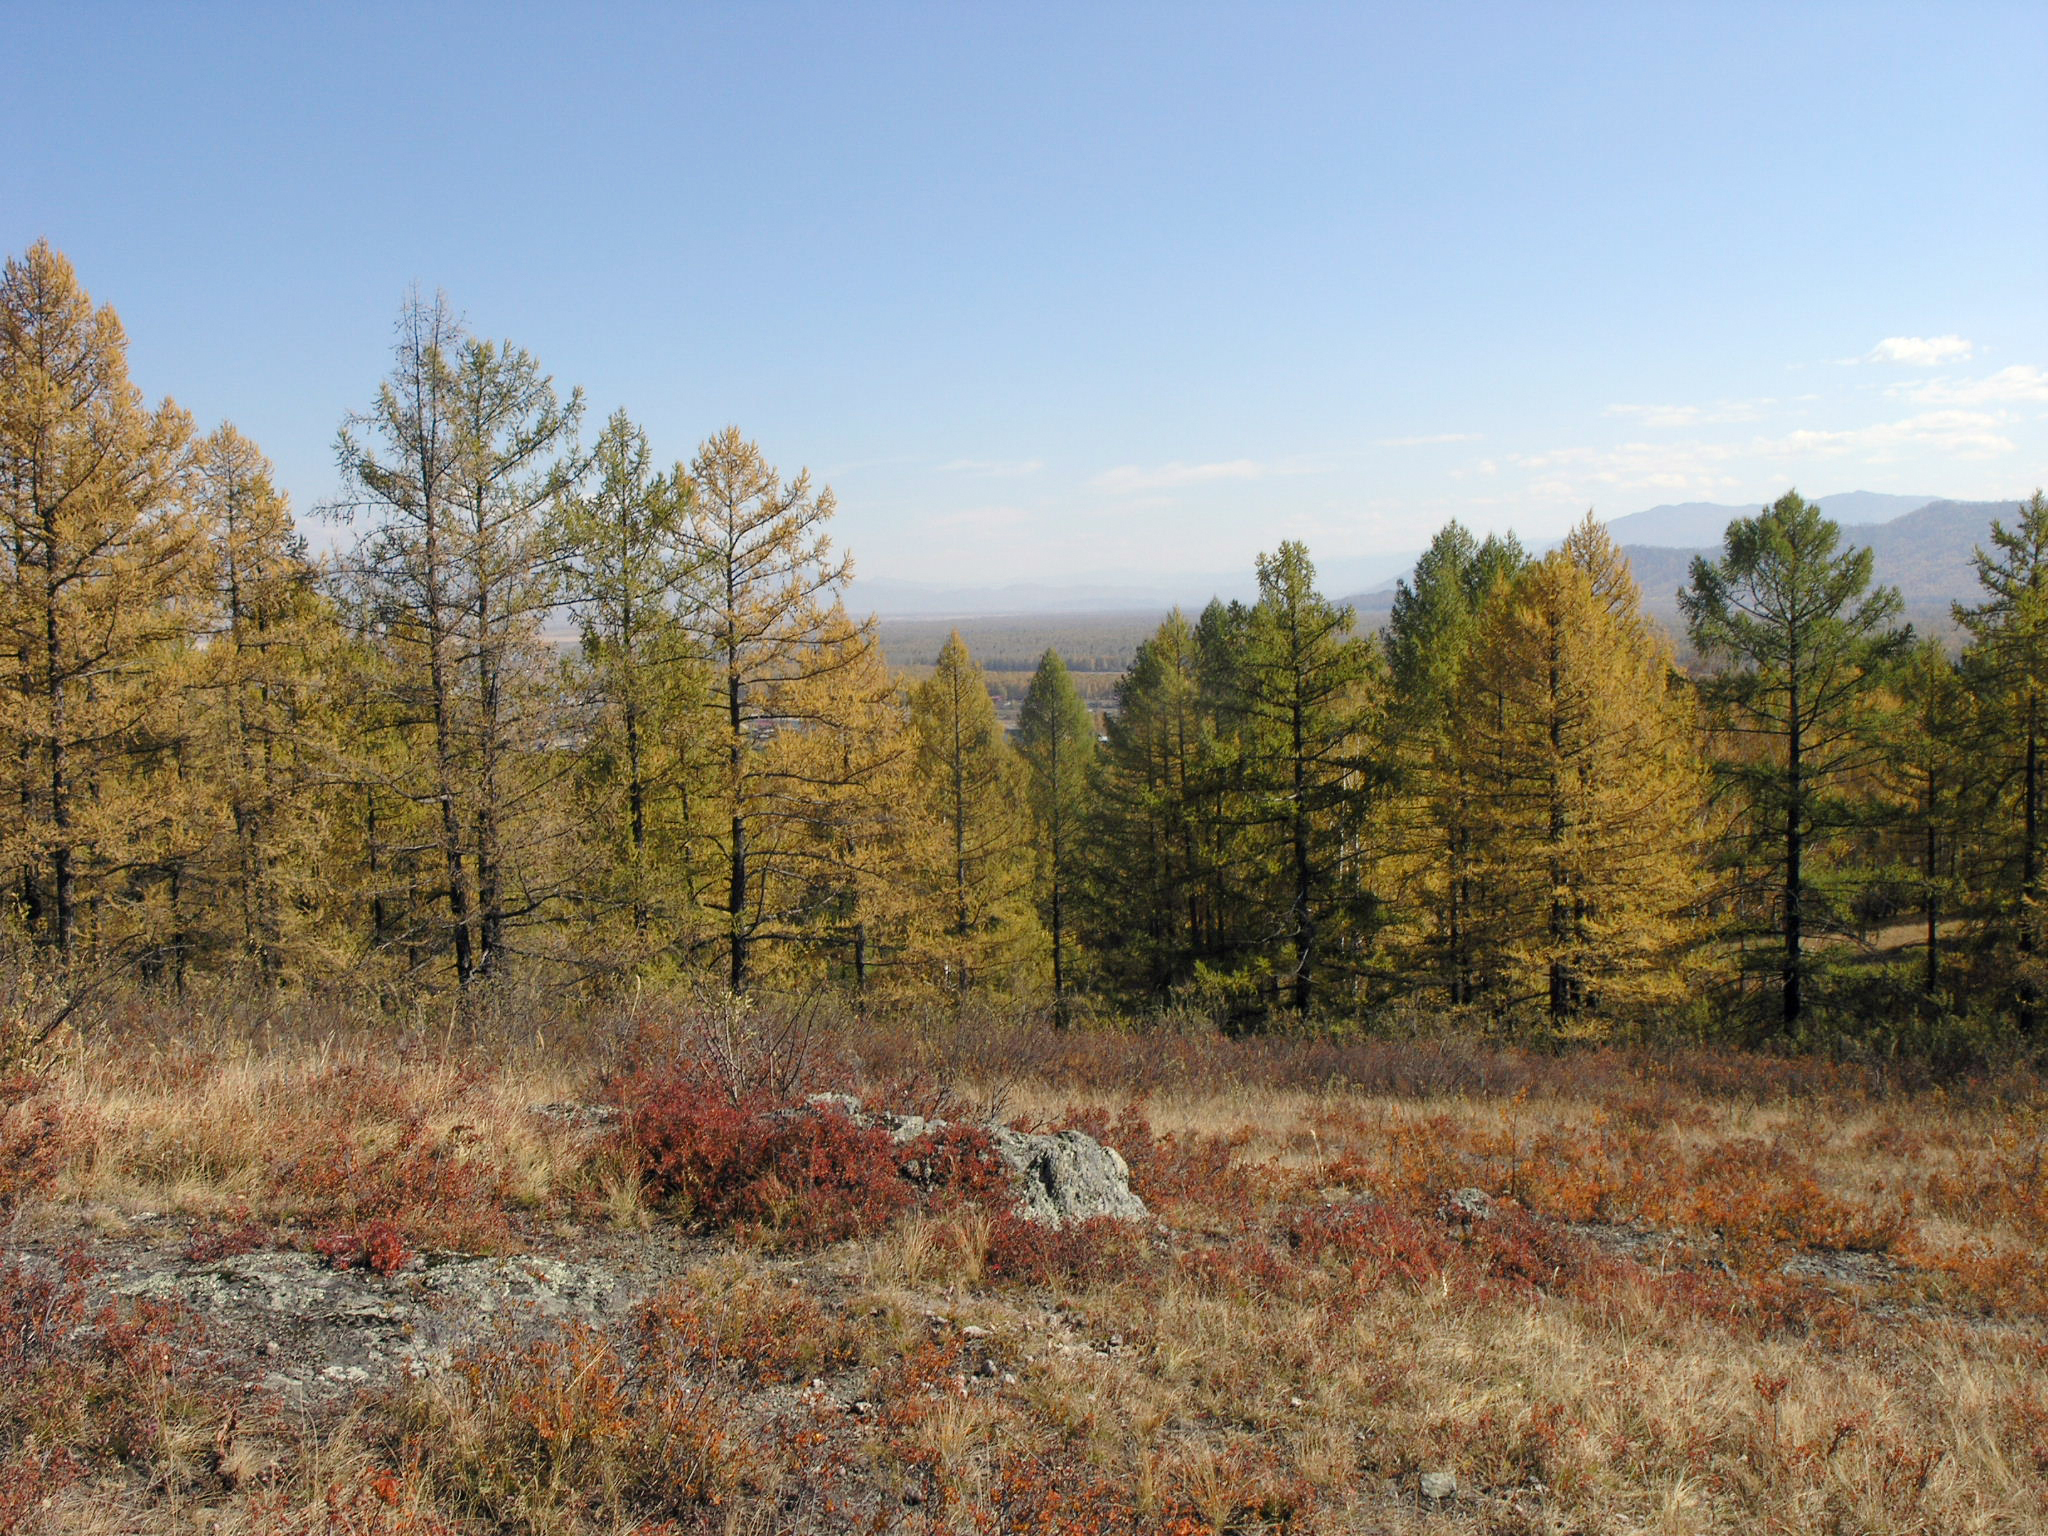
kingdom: Plantae
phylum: Tracheophyta
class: Pinopsida
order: Pinales
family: Pinaceae
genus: Larix
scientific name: Larix sibirica
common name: Siberian larch
